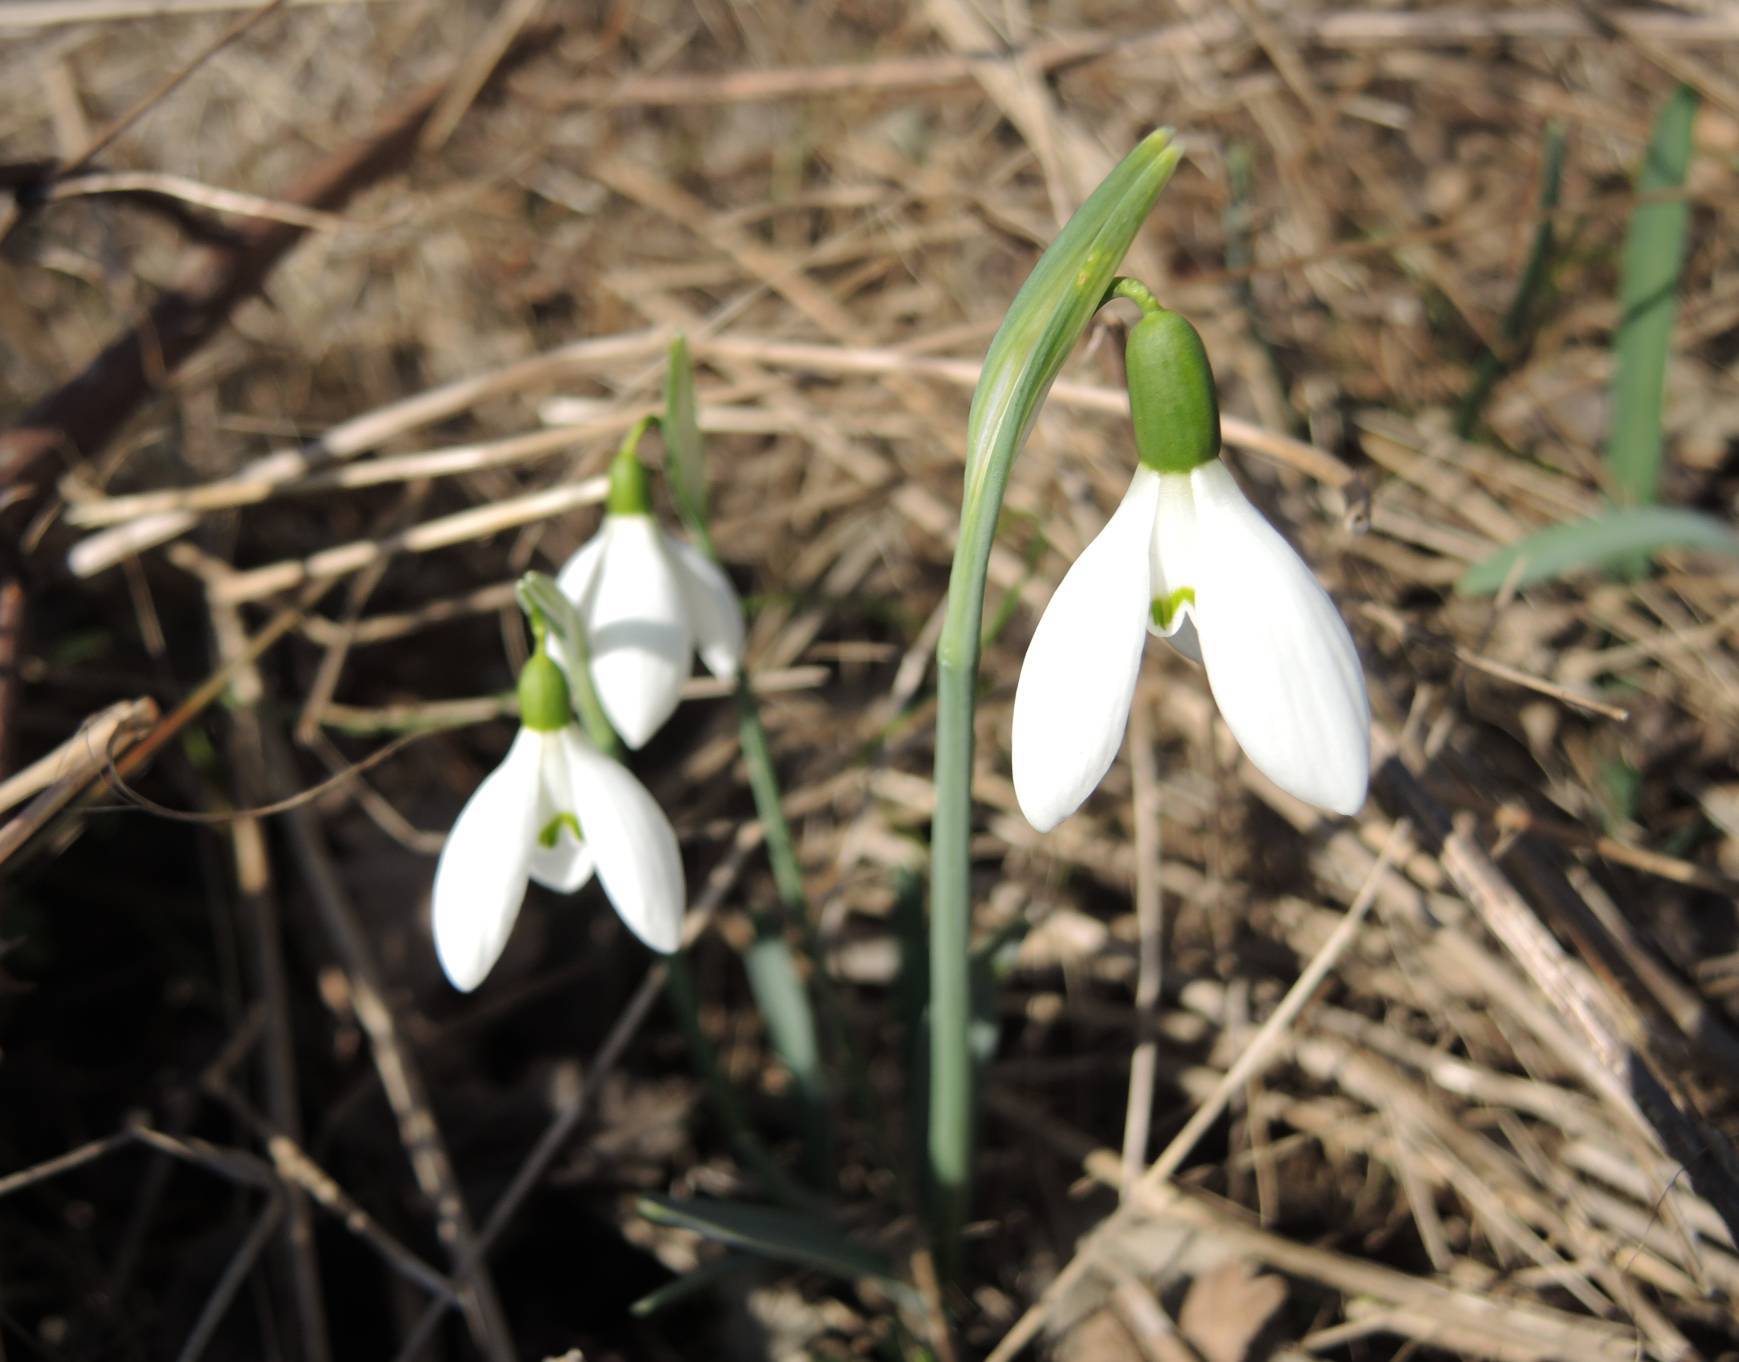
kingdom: Plantae
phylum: Tracheophyta
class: Liliopsida
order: Asparagales
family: Amaryllidaceae
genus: Galanthus
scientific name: Galanthus nivalis
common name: Snowdrop
